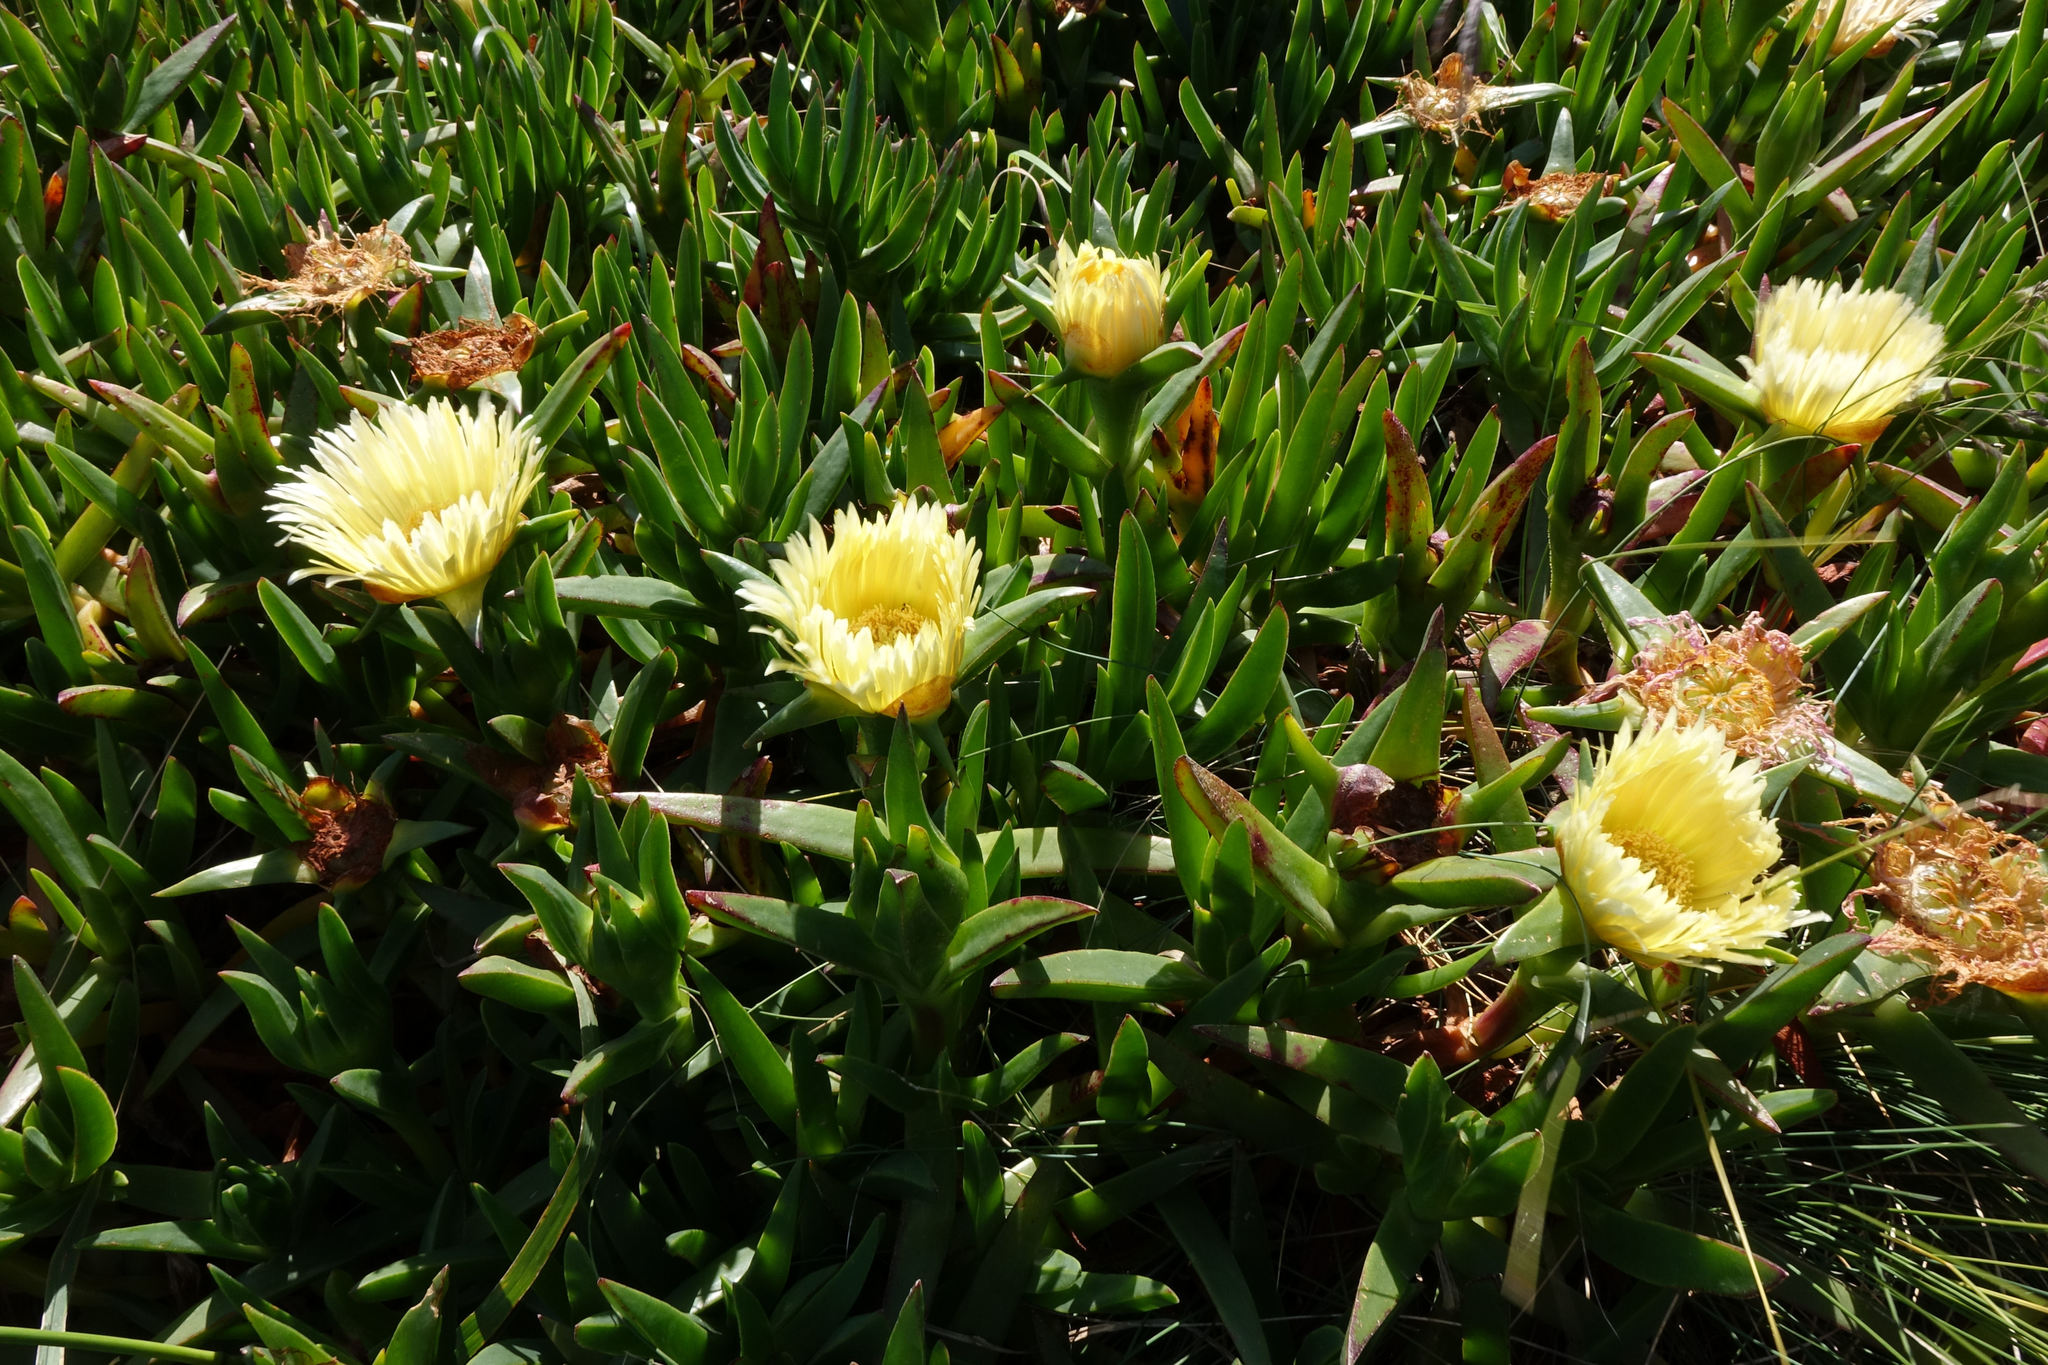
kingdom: Plantae
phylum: Tracheophyta
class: Magnoliopsida
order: Caryophyllales
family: Aizoaceae
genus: Carpobrotus
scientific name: Carpobrotus edulis
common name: Hottentot-fig
